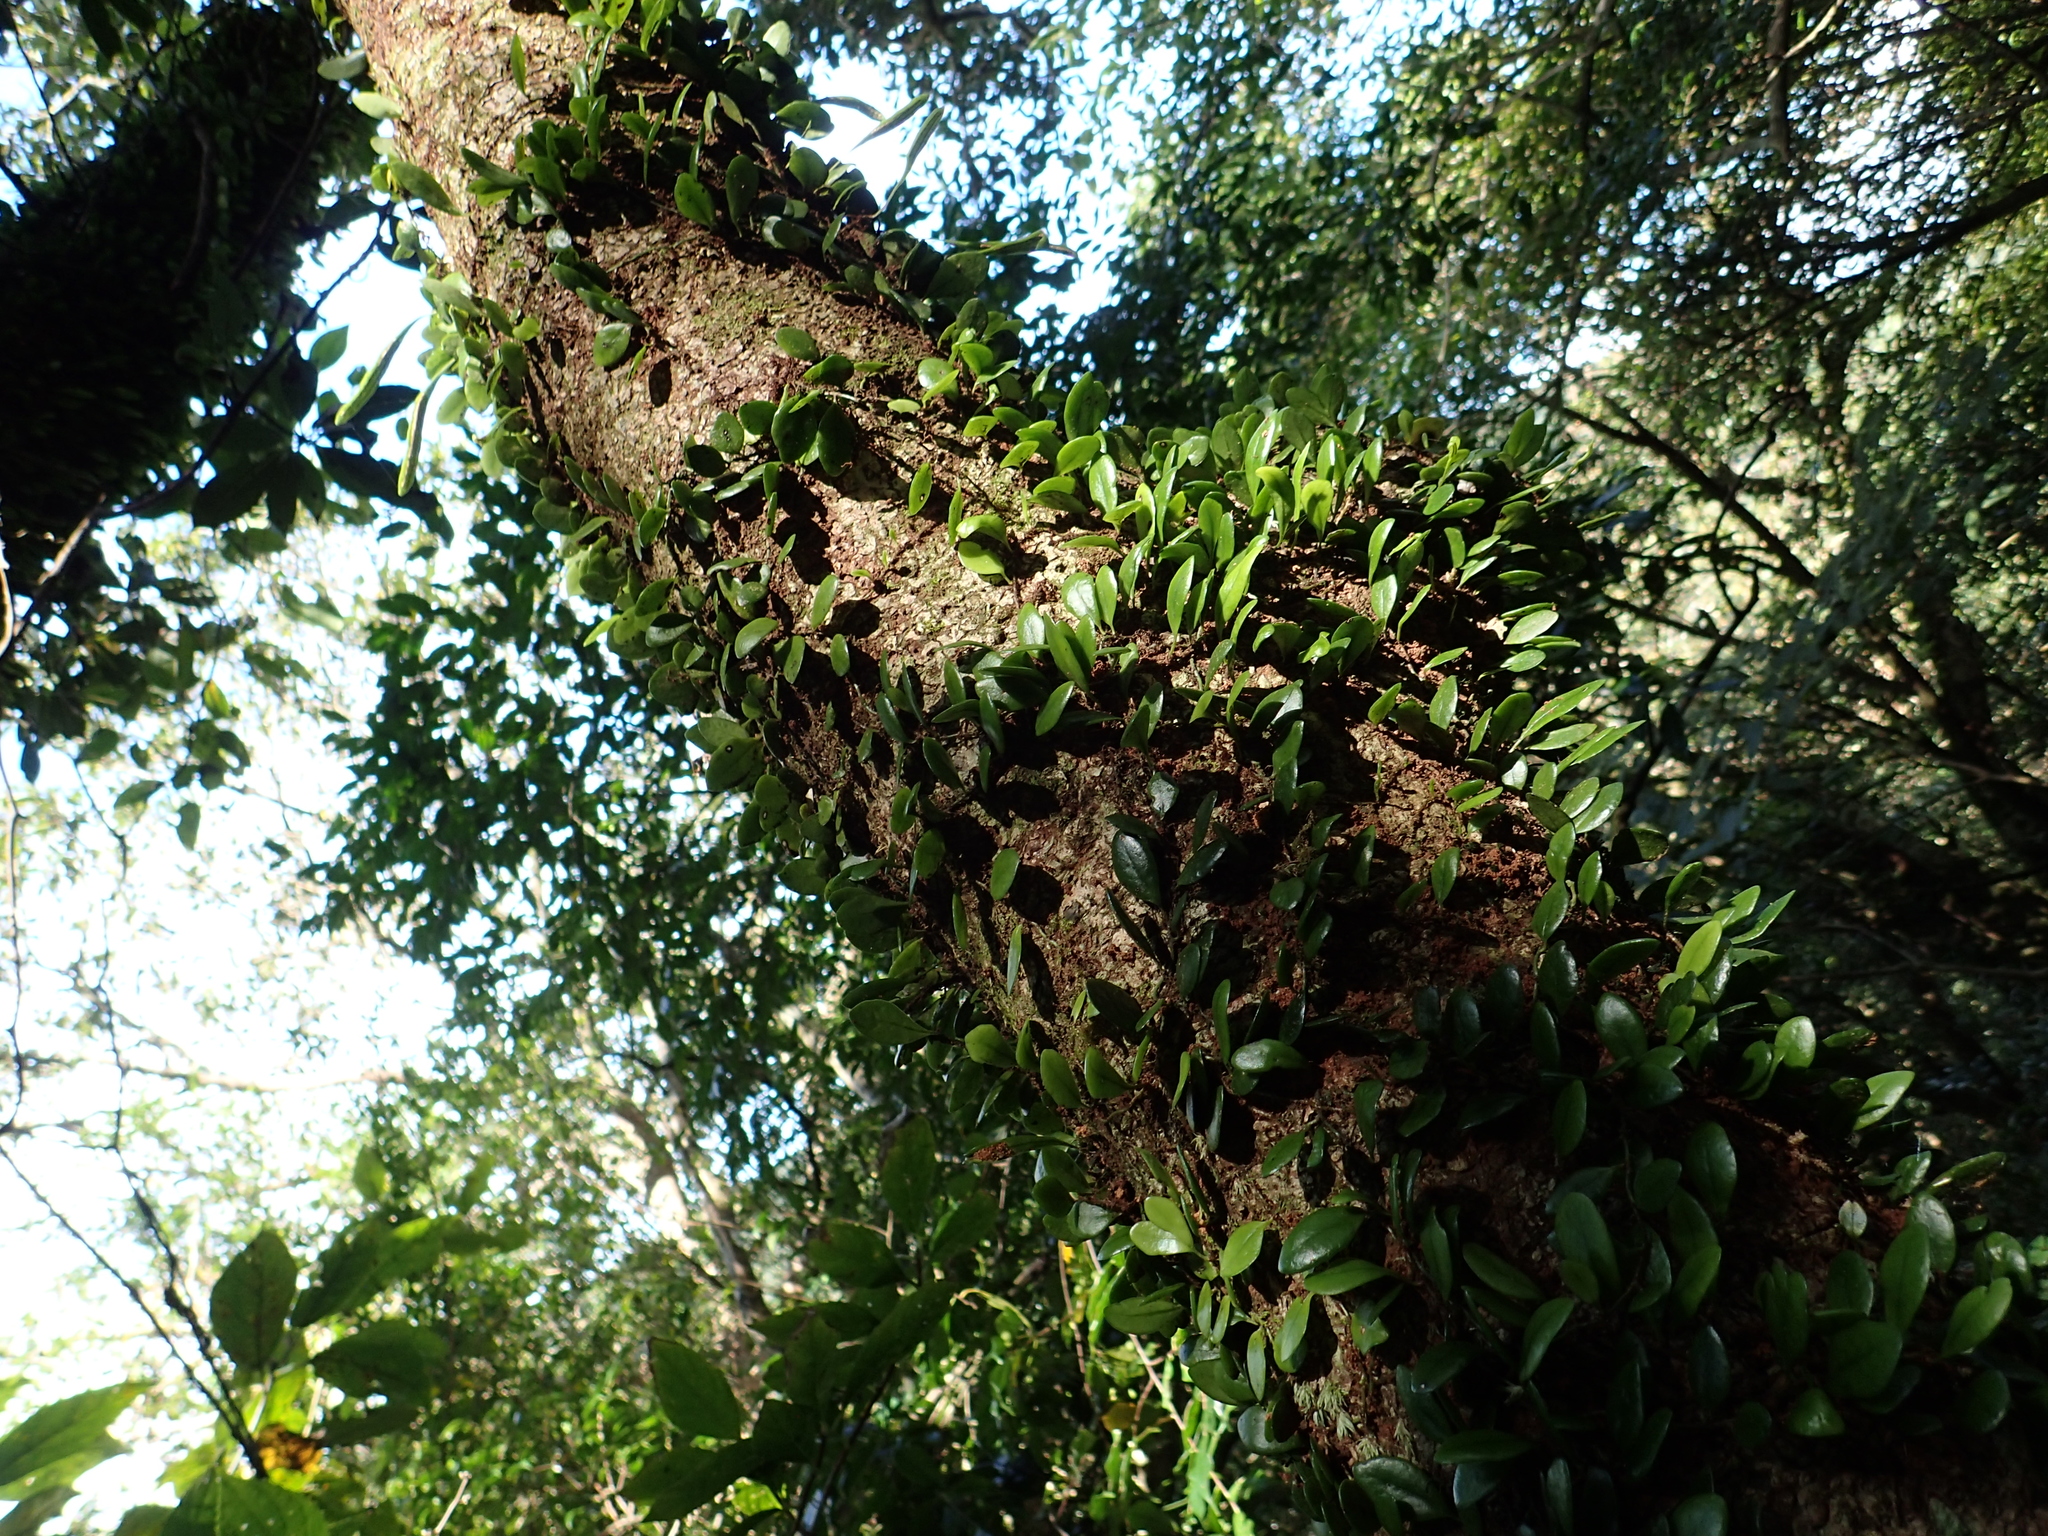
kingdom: Plantae
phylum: Tracheophyta
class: Polypodiopsida
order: Polypodiales
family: Polypodiaceae
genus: Lepisorus
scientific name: Lepisorus microphyllus
